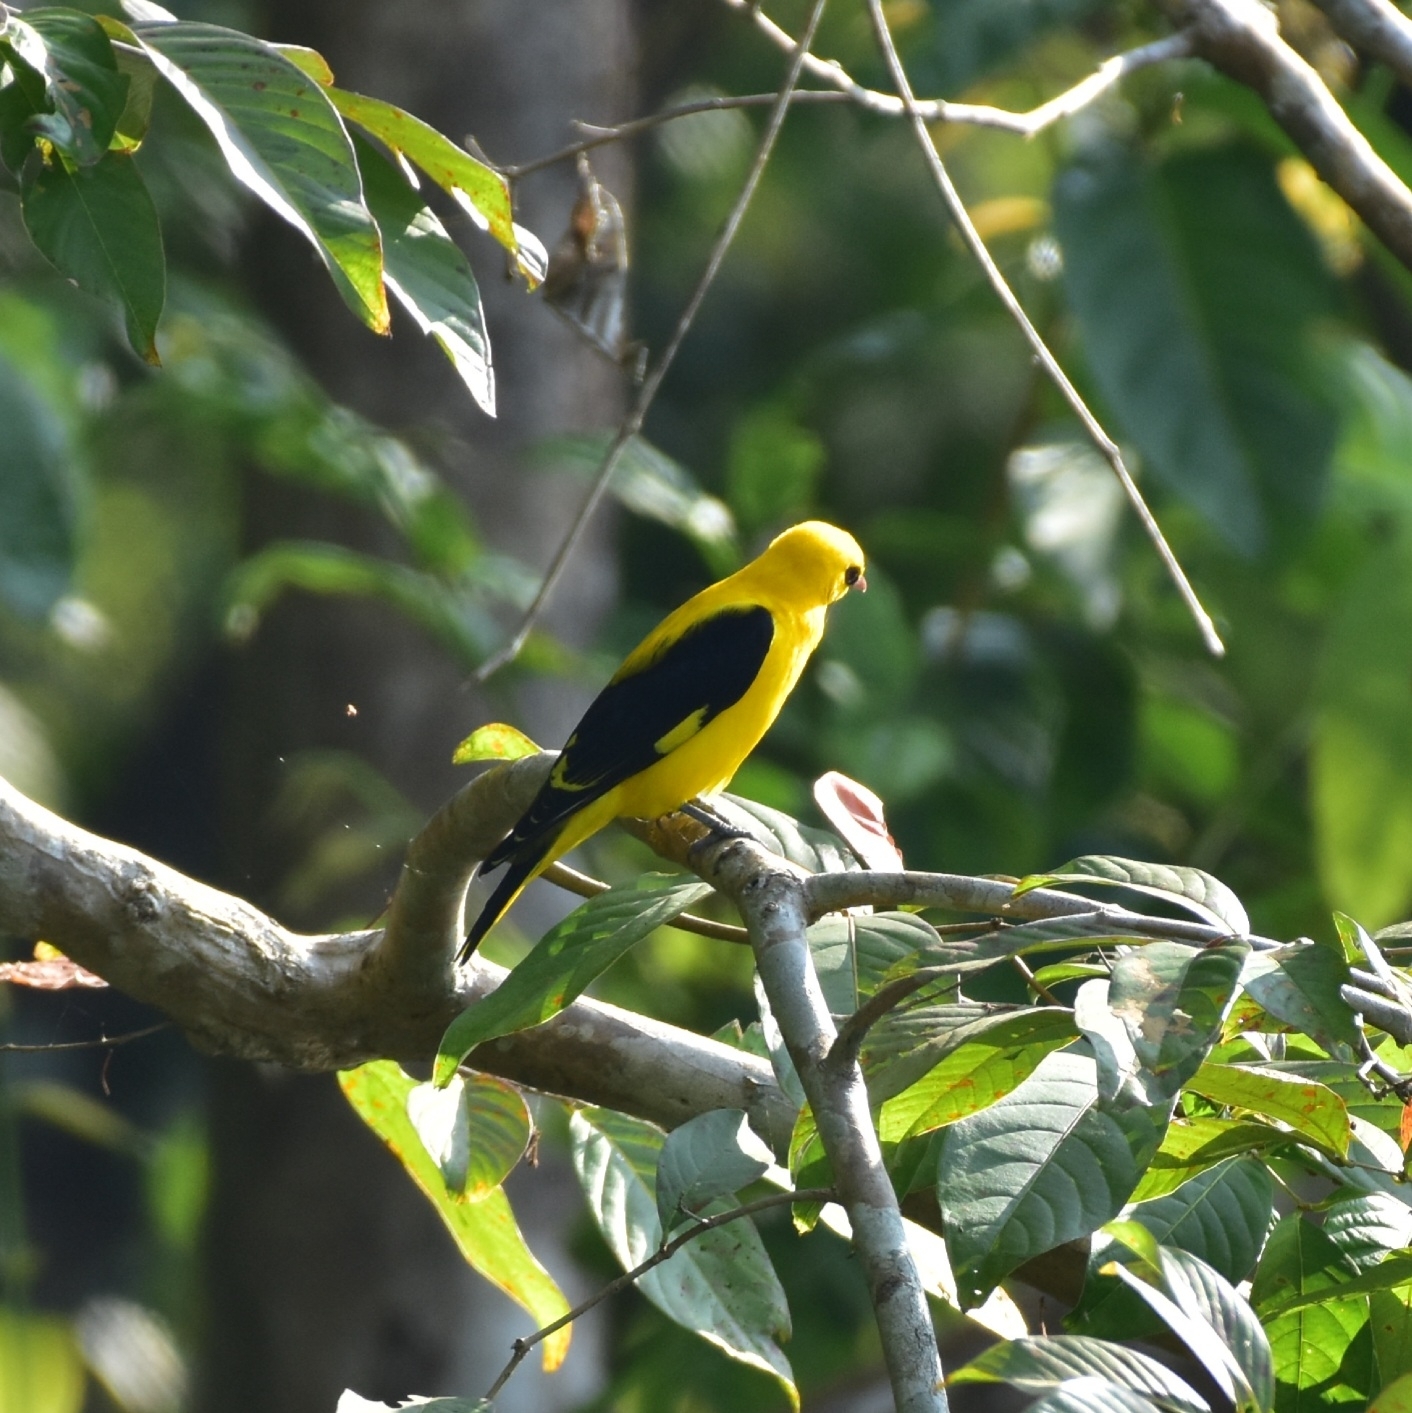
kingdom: Animalia
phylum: Chordata
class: Aves
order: Passeriformes
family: Oriolidae
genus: Oriolus
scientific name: Oriolus kundoo
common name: Indian golden oriole
